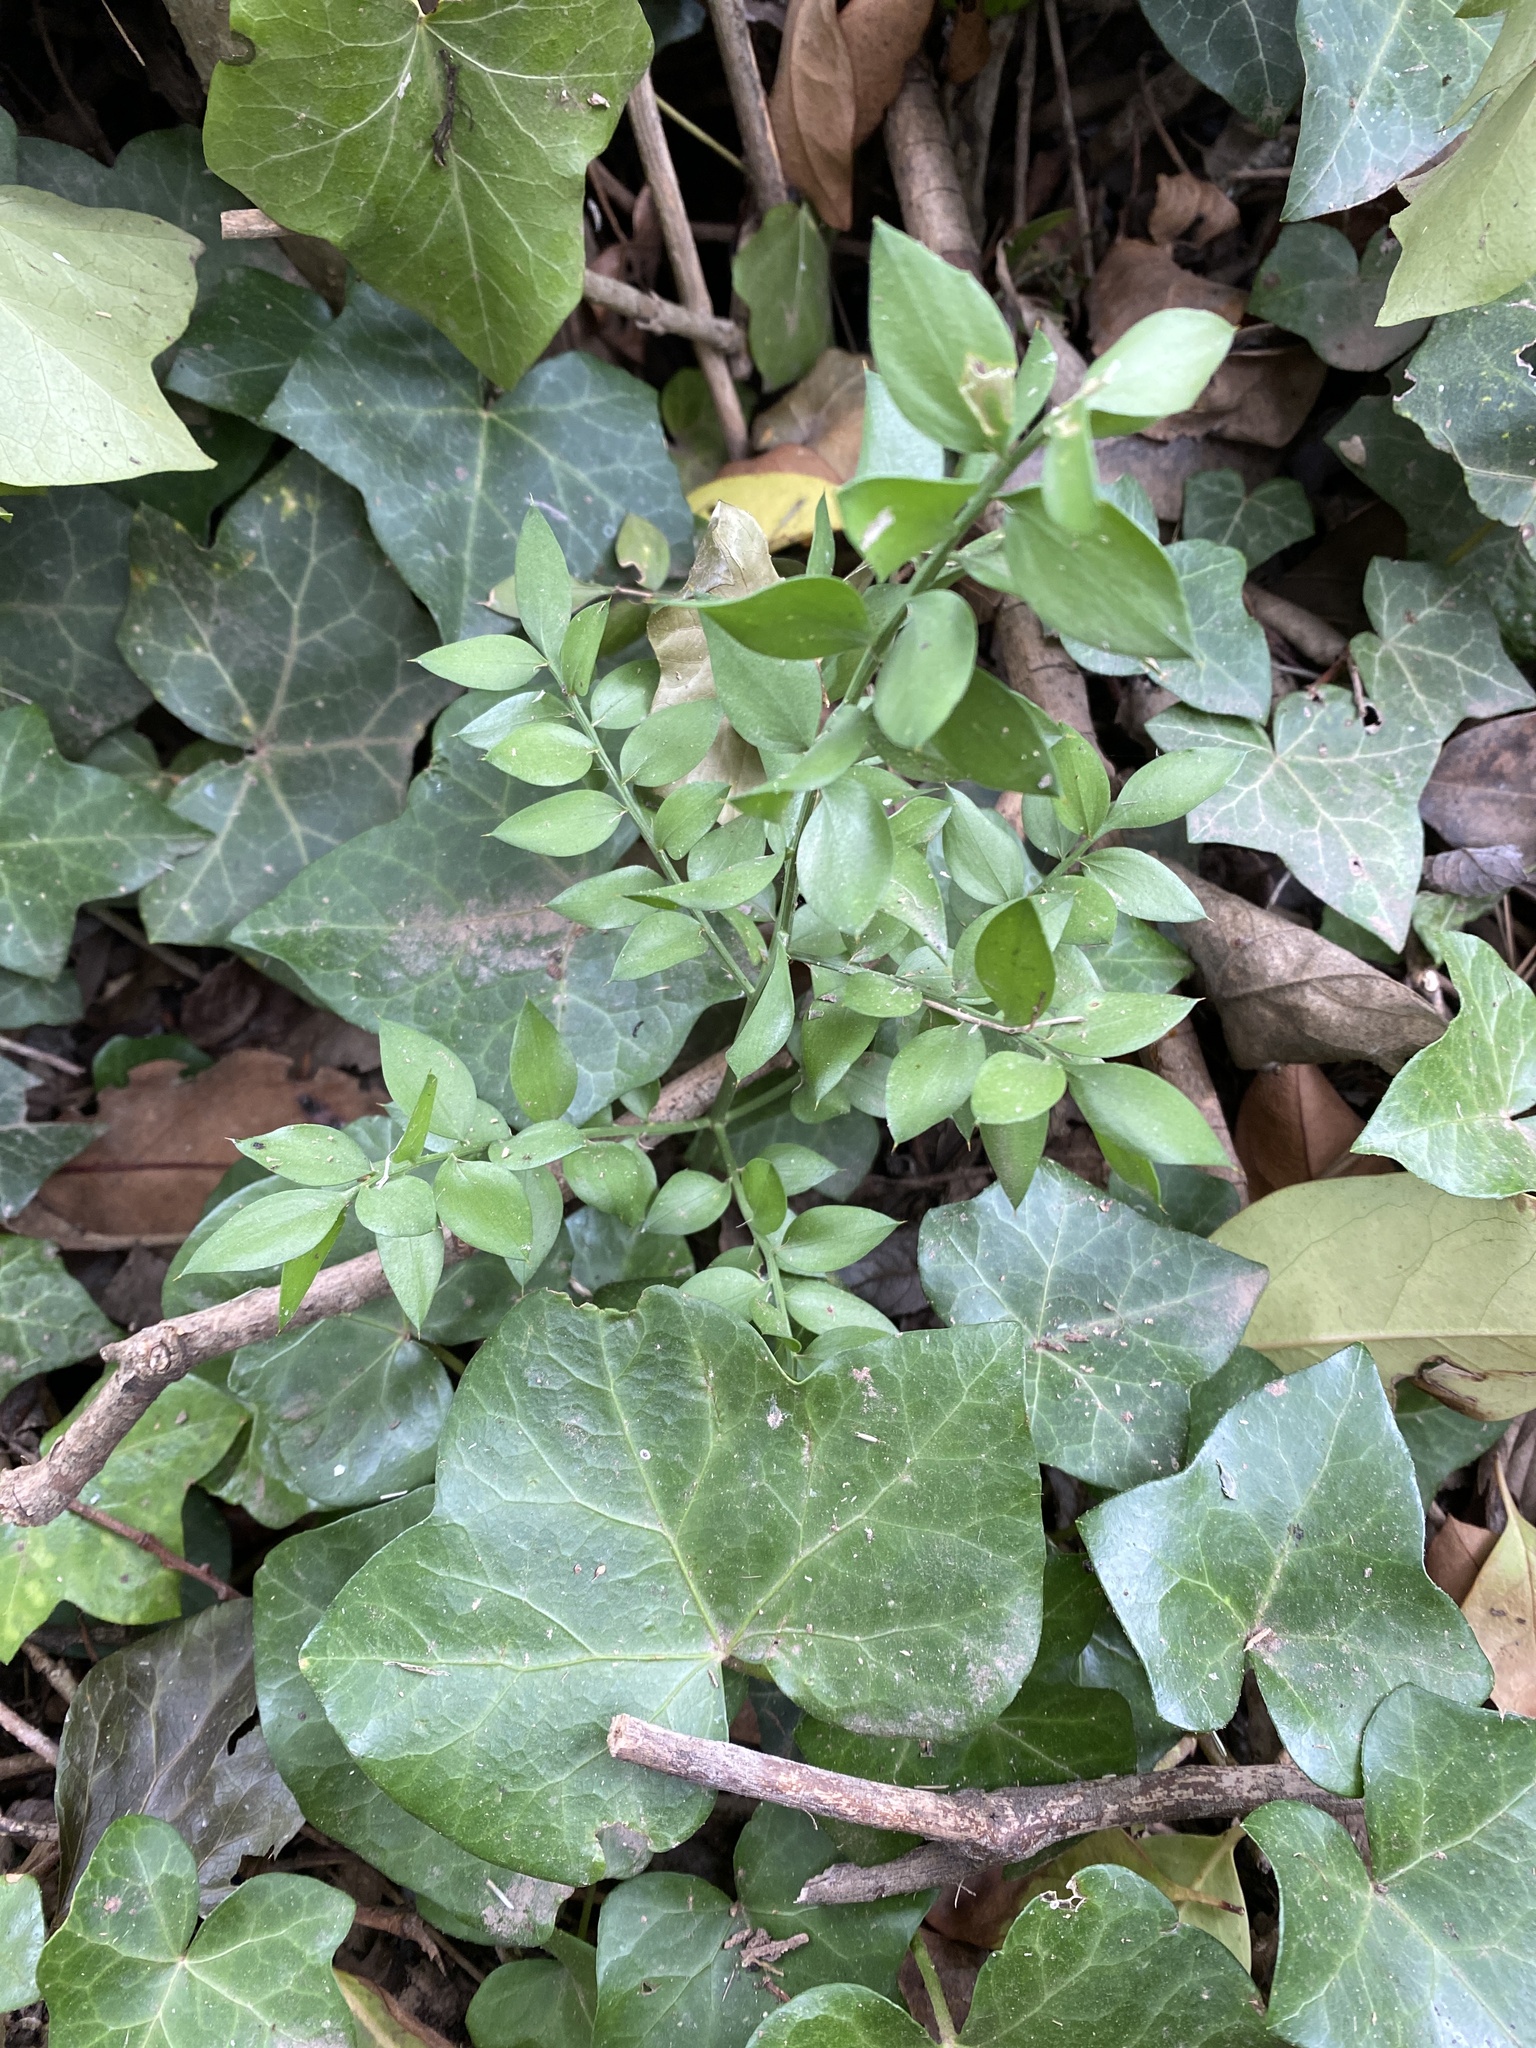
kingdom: Plantae
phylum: Tracheophyta
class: Liliopsida
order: Asparagales
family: Asparagaceae
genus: Ruscus
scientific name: Ruscus aculeatus
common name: Butcher's-broom
